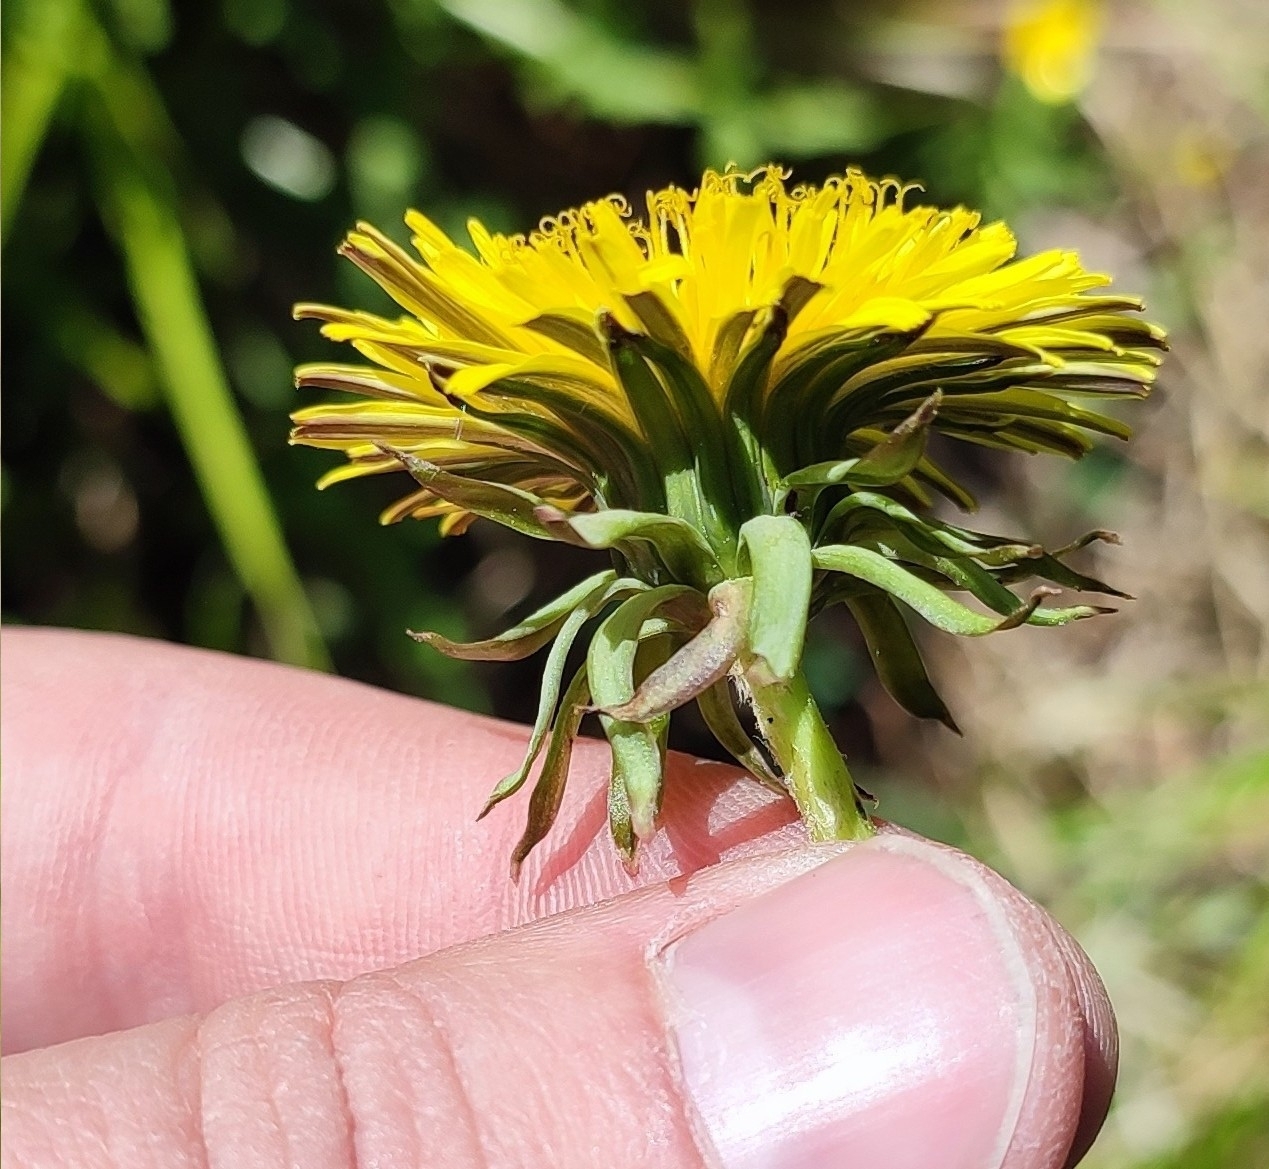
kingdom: Plantae
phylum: Tracheophyta
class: Magnoliopsida
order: Asterales
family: Asteraceae
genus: Taraxacum
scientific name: Taraxacum scariosum
